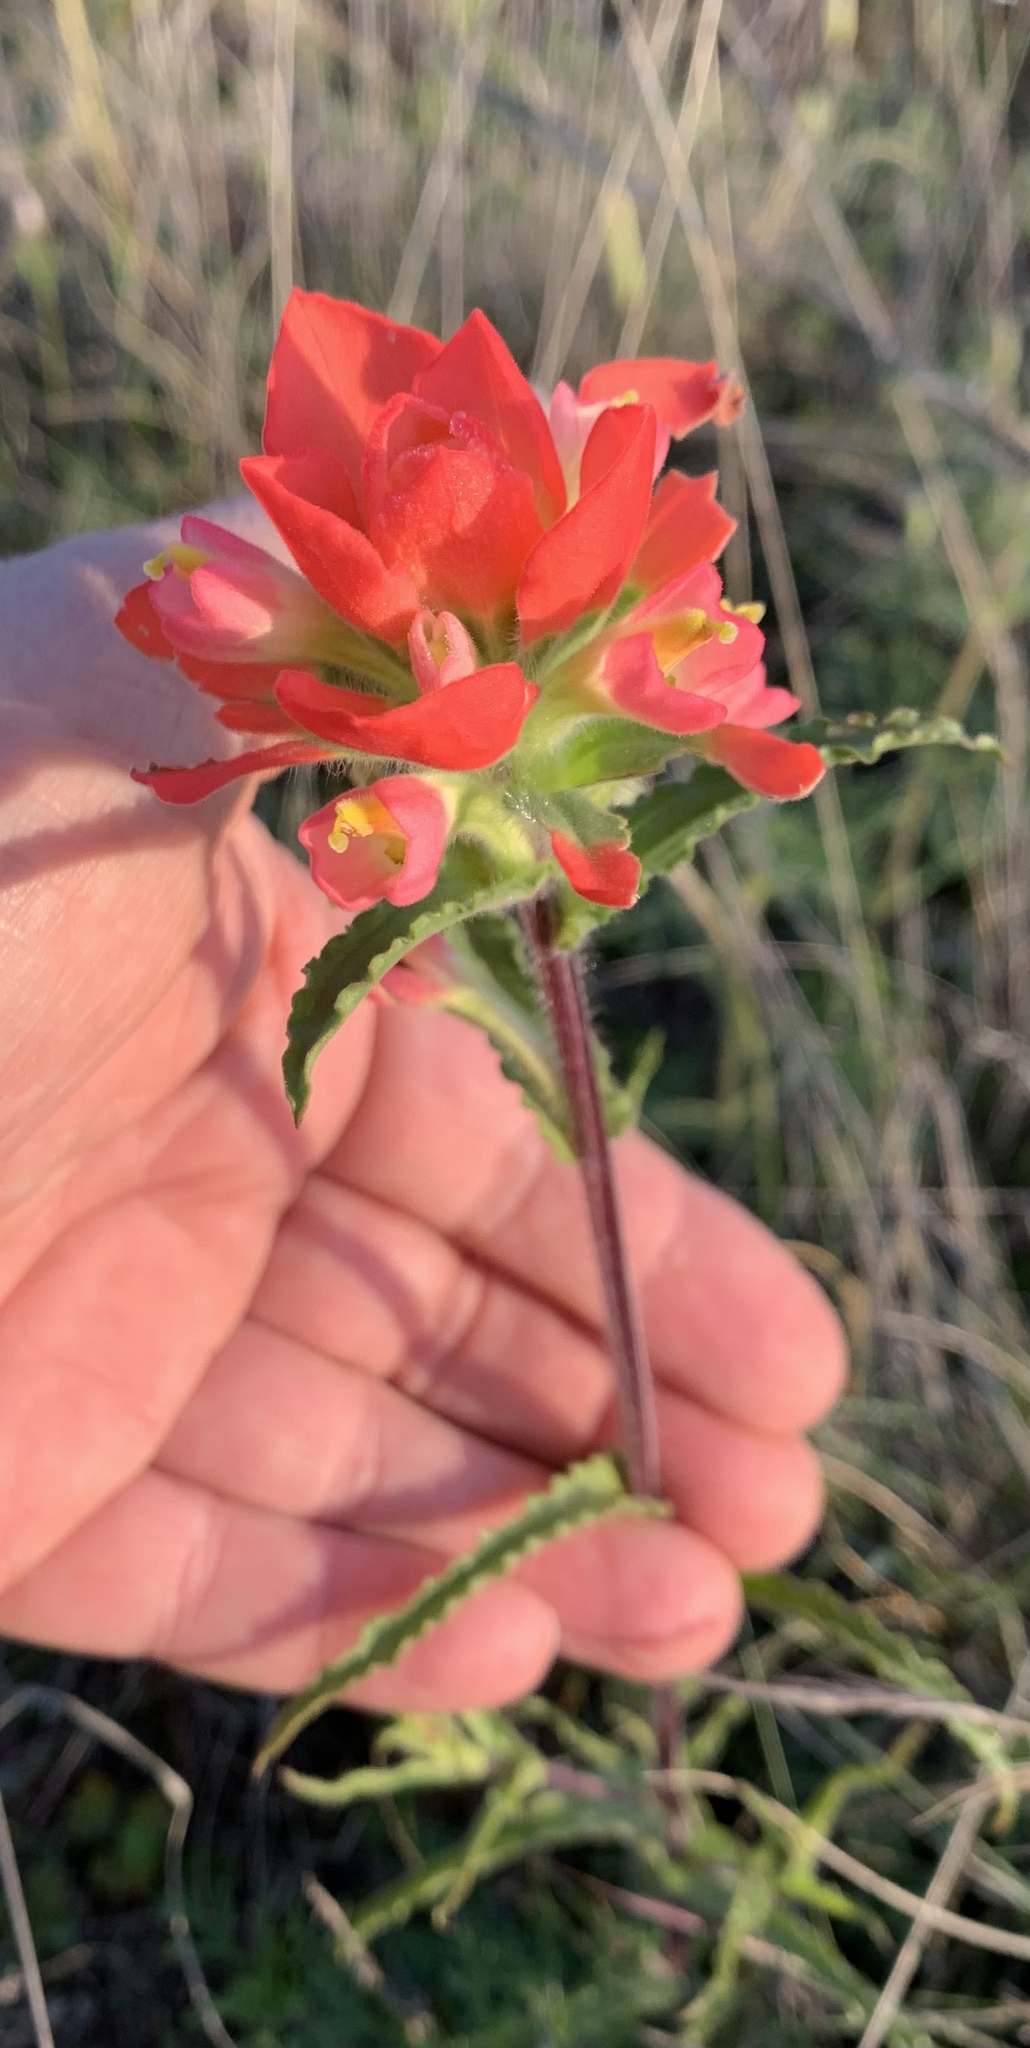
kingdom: Plantae
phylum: Tracheophyta
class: Magnoliopsida
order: Lamiales
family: Orobanchaceae
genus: Castilleja
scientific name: Castilleja indivisa
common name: Texas paintbrush
